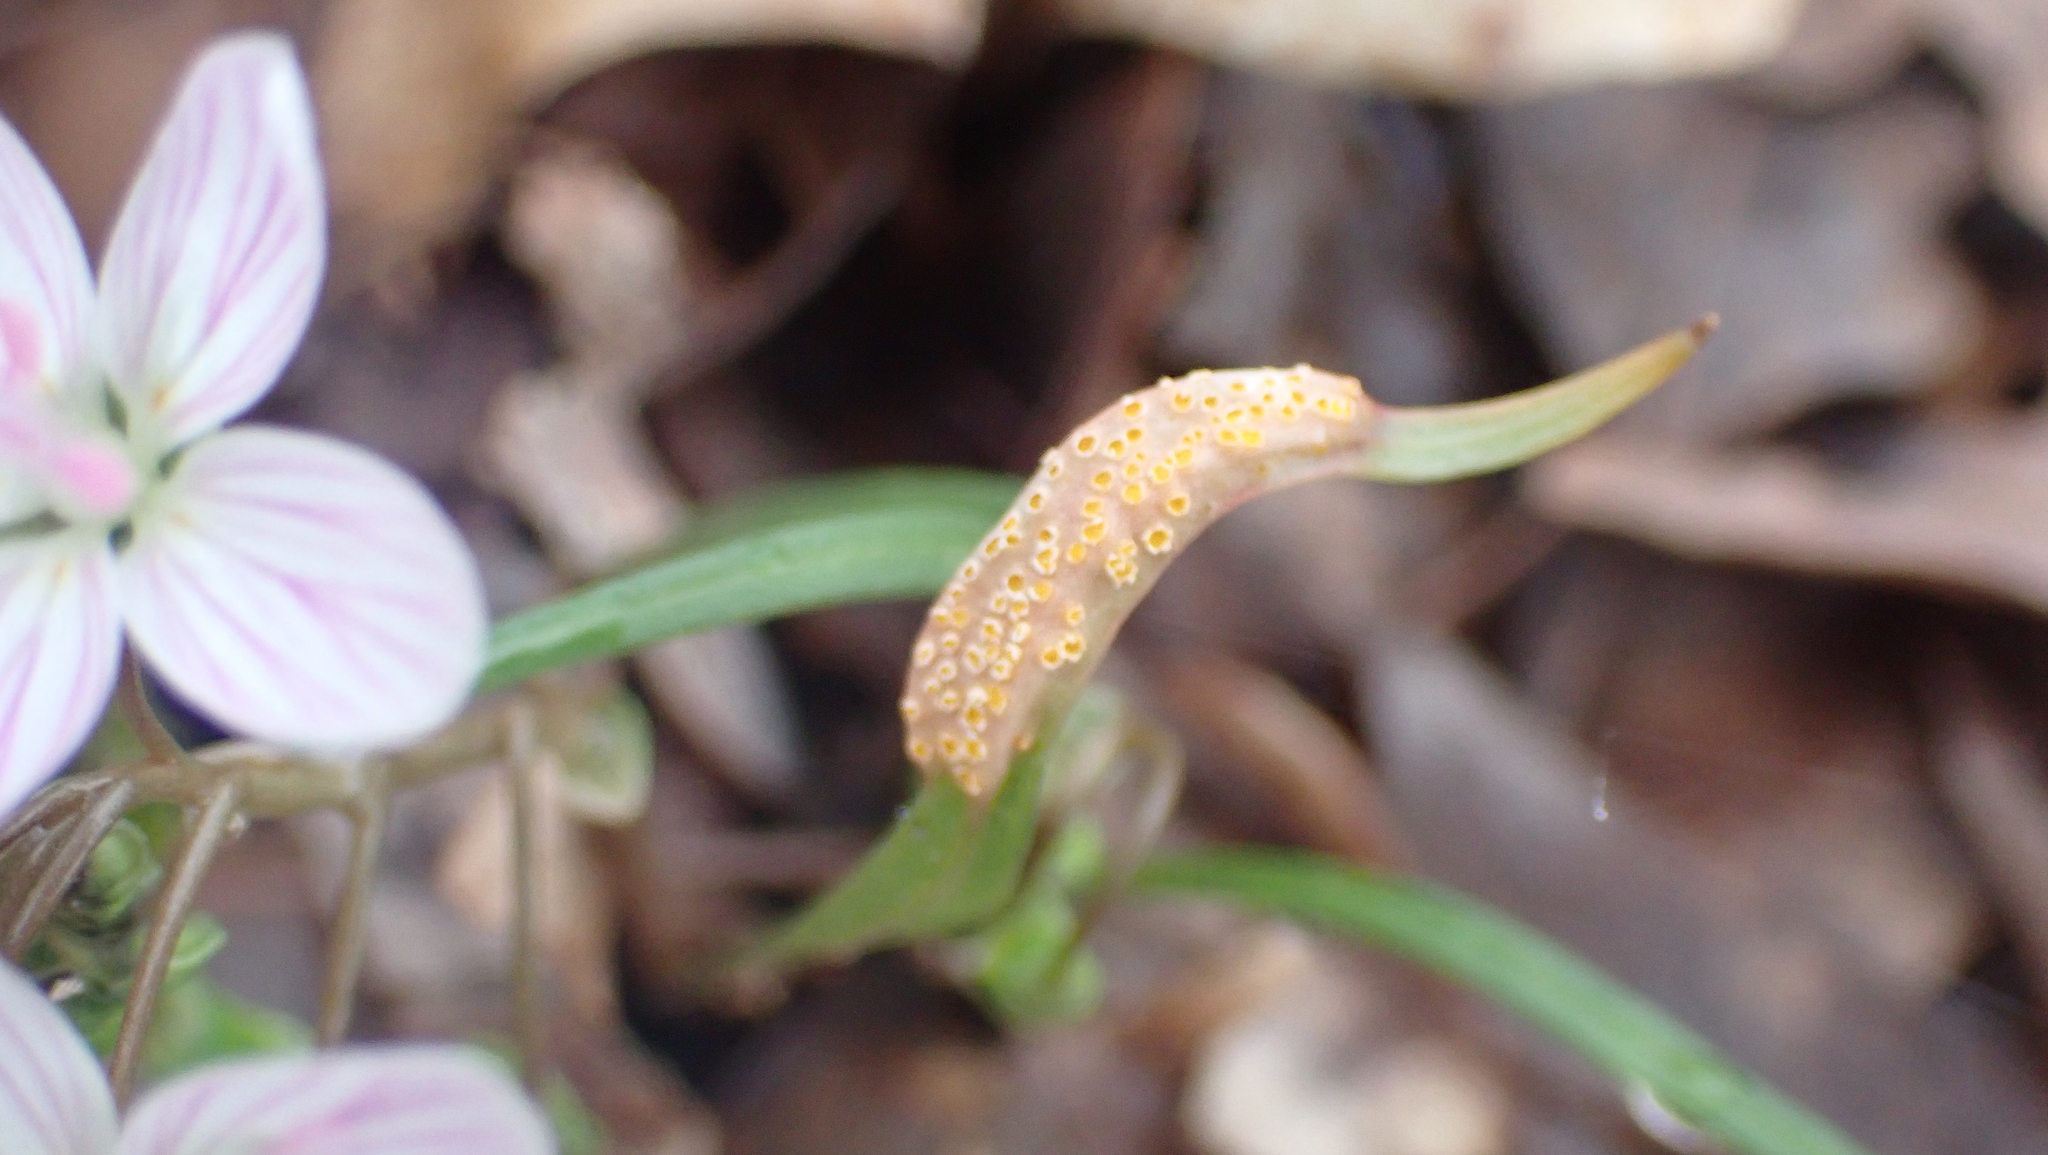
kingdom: Fungi
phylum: Basidiomycota
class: Pucciniomycetes
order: Pucciniales
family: Pucciniaceae
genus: Puccinia
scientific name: Puccinia mariae-wilsoniae
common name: Spring beauty rust
